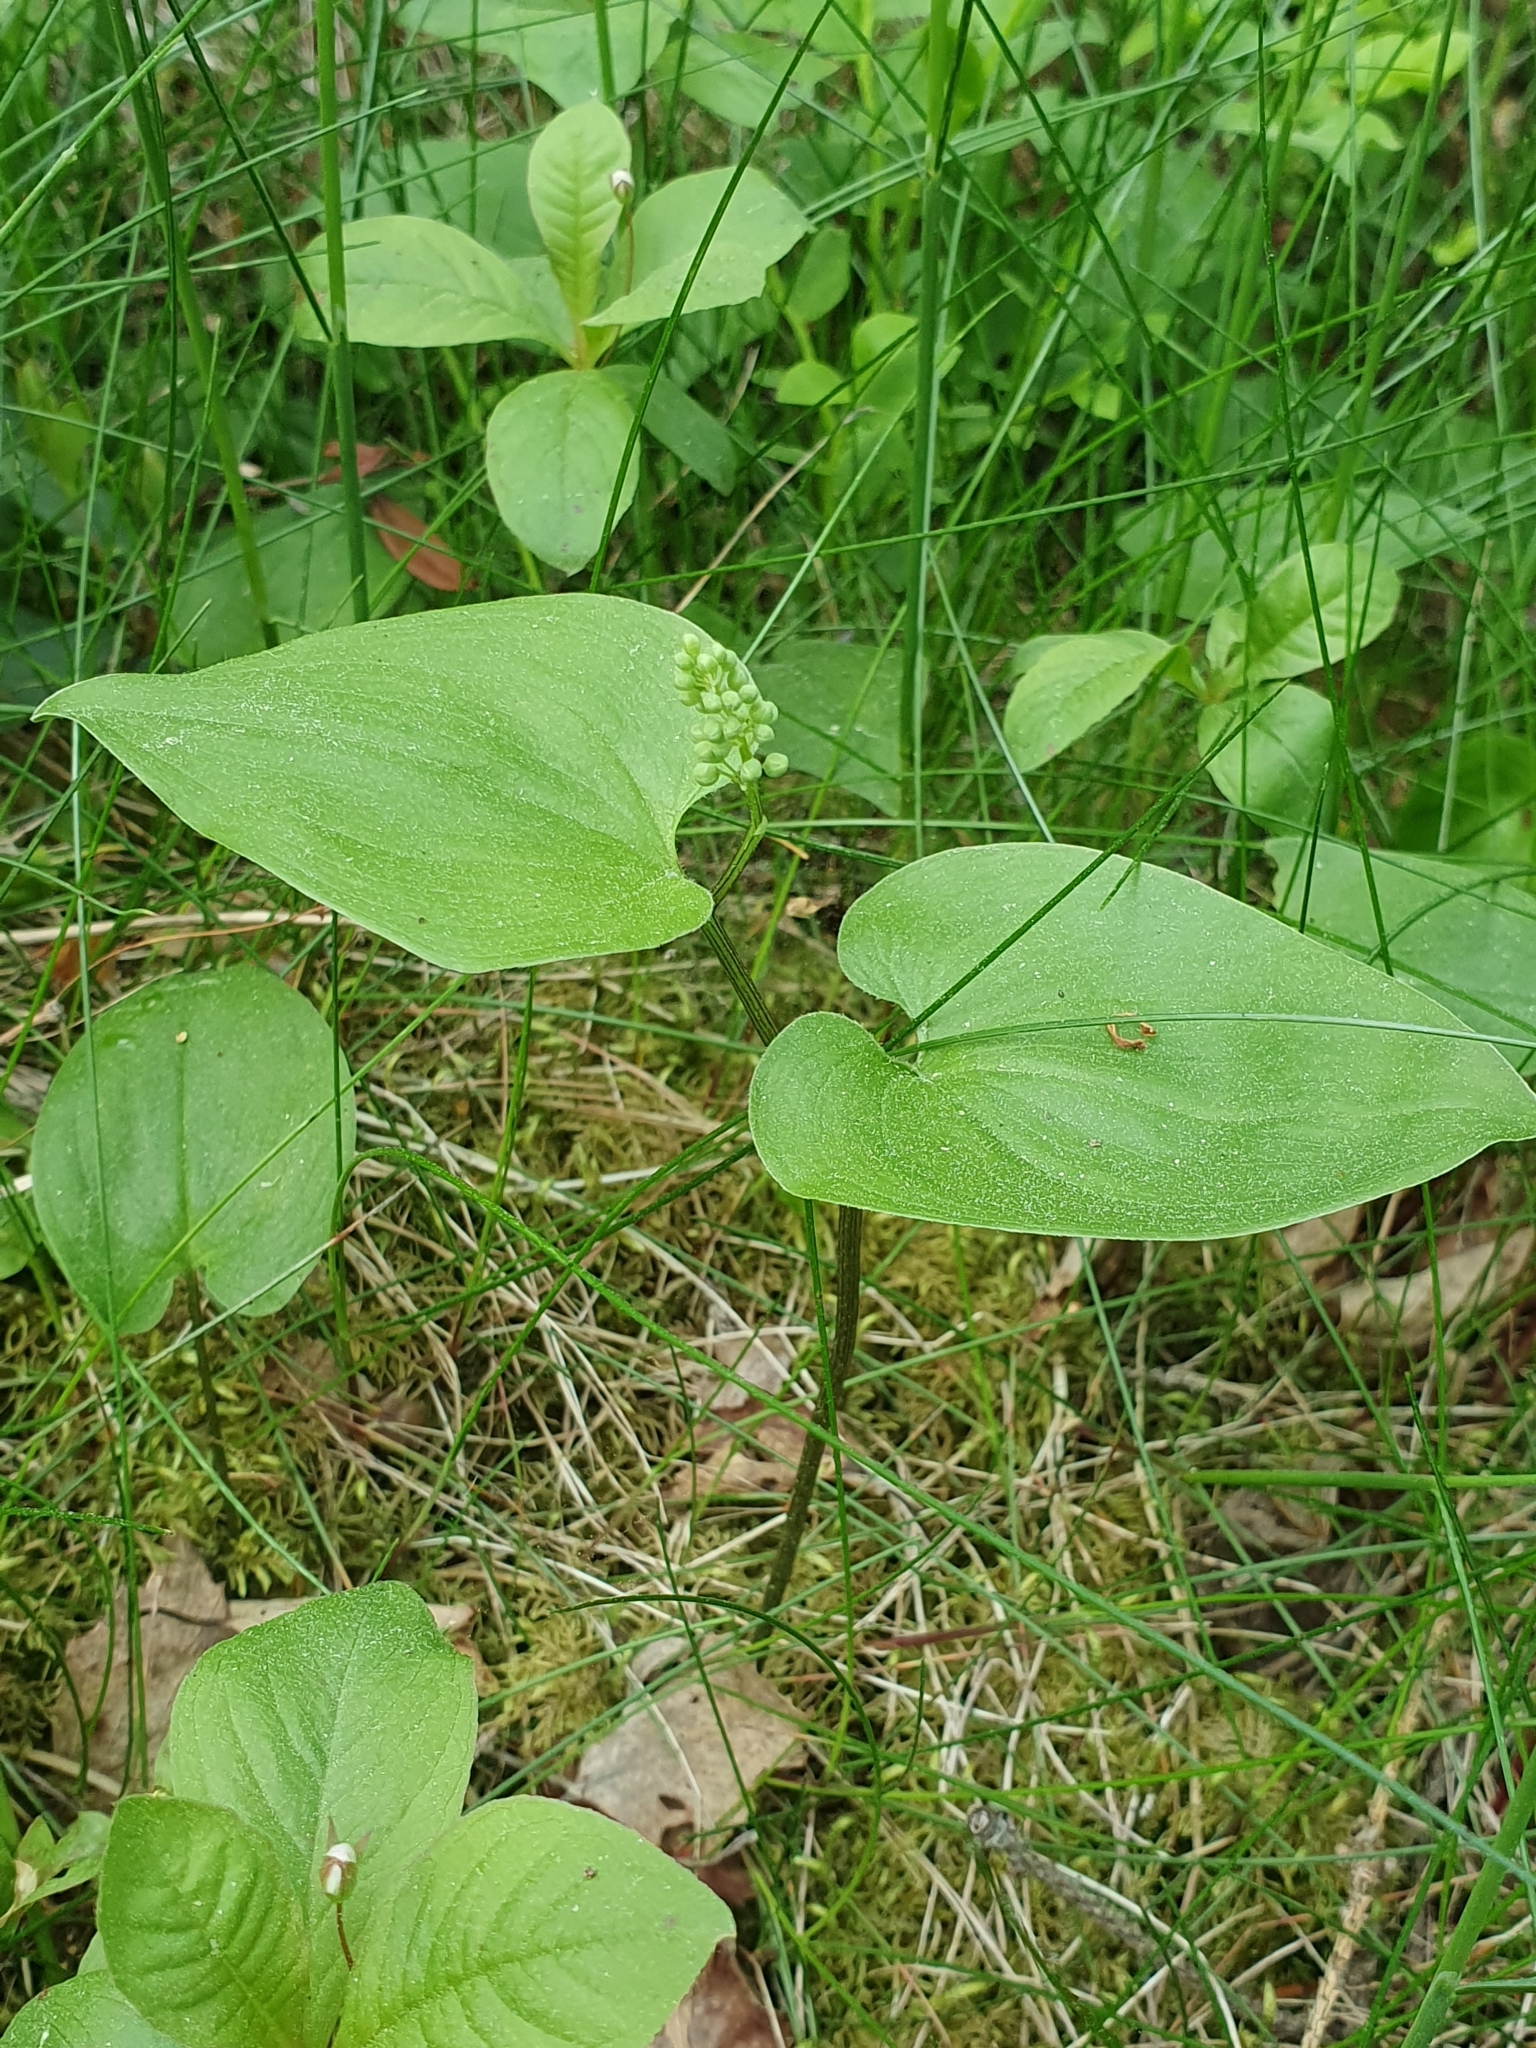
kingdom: Plantae
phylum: Tracheophyta
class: Liliopsida
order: Asparagales
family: Asparagaceae
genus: Maianthemum
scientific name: Maianthemum bifolium
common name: May lily
